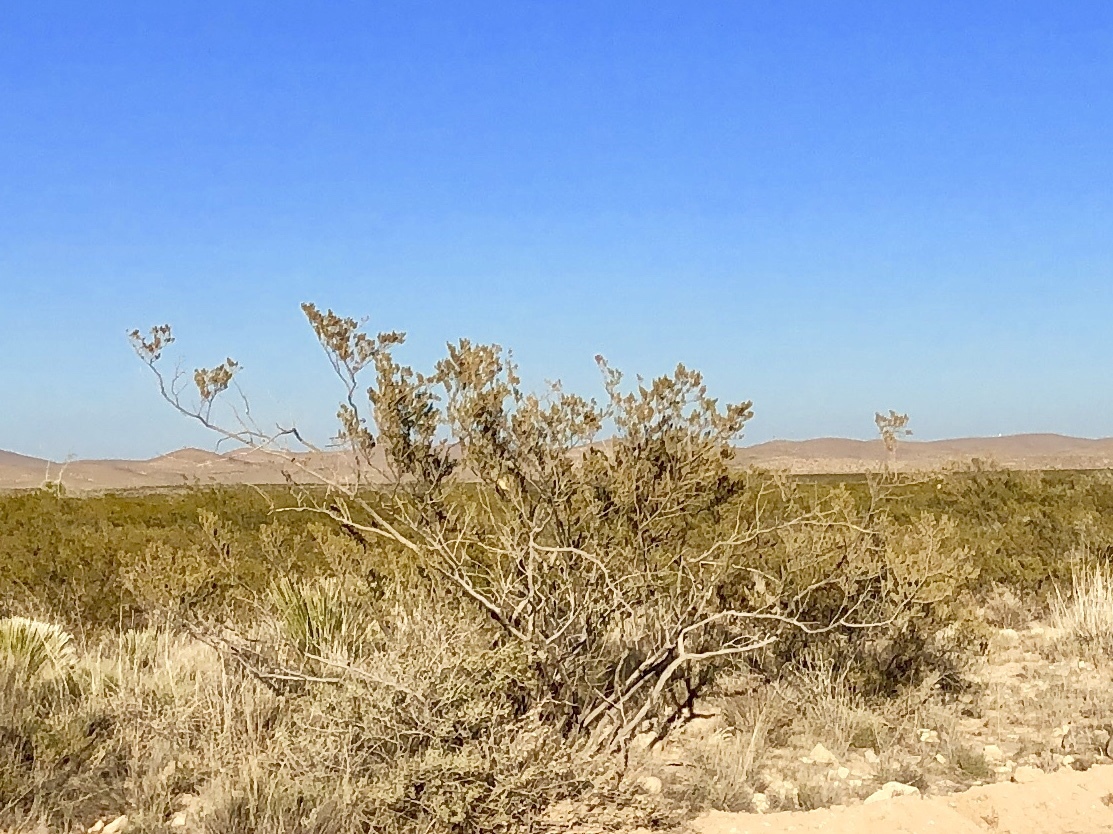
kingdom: Plantae
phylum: Tracheophyta
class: Magnoliopsida
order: Zygophyllales
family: Zygophyllaceae
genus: Larrea
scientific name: Larrea tridentata
